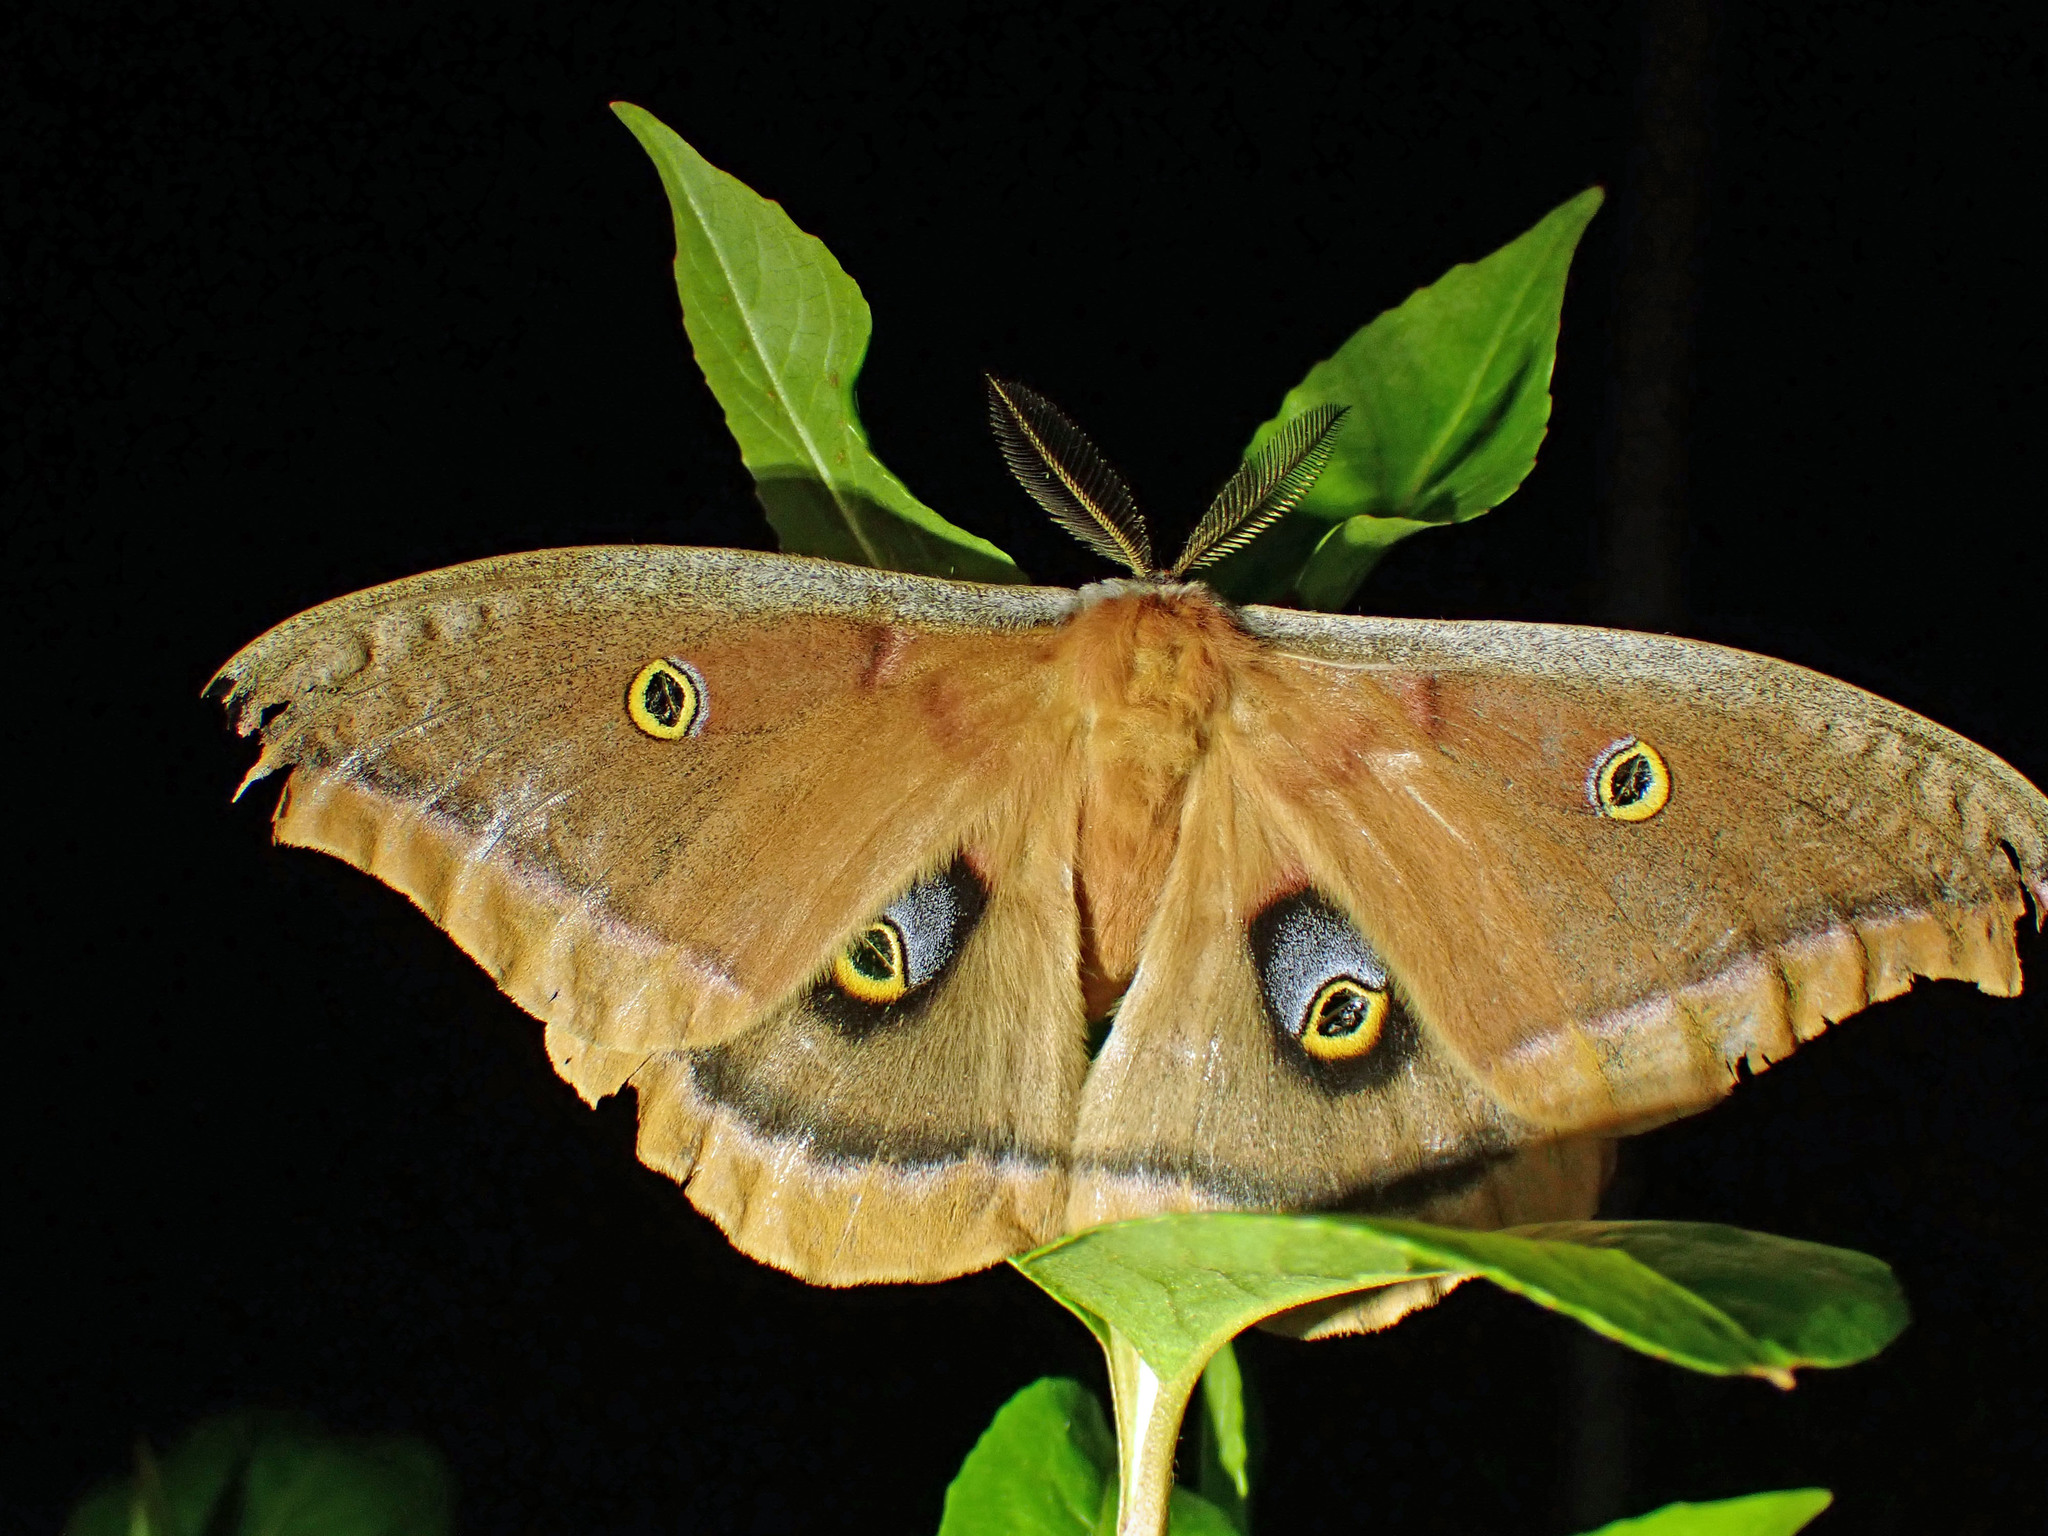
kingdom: Animalia
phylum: Arthropoda
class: Insecta
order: Lepidoptera
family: Saturniidae
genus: Antheraea
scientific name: Antheraea polyphemus
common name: Polyphemus moth
